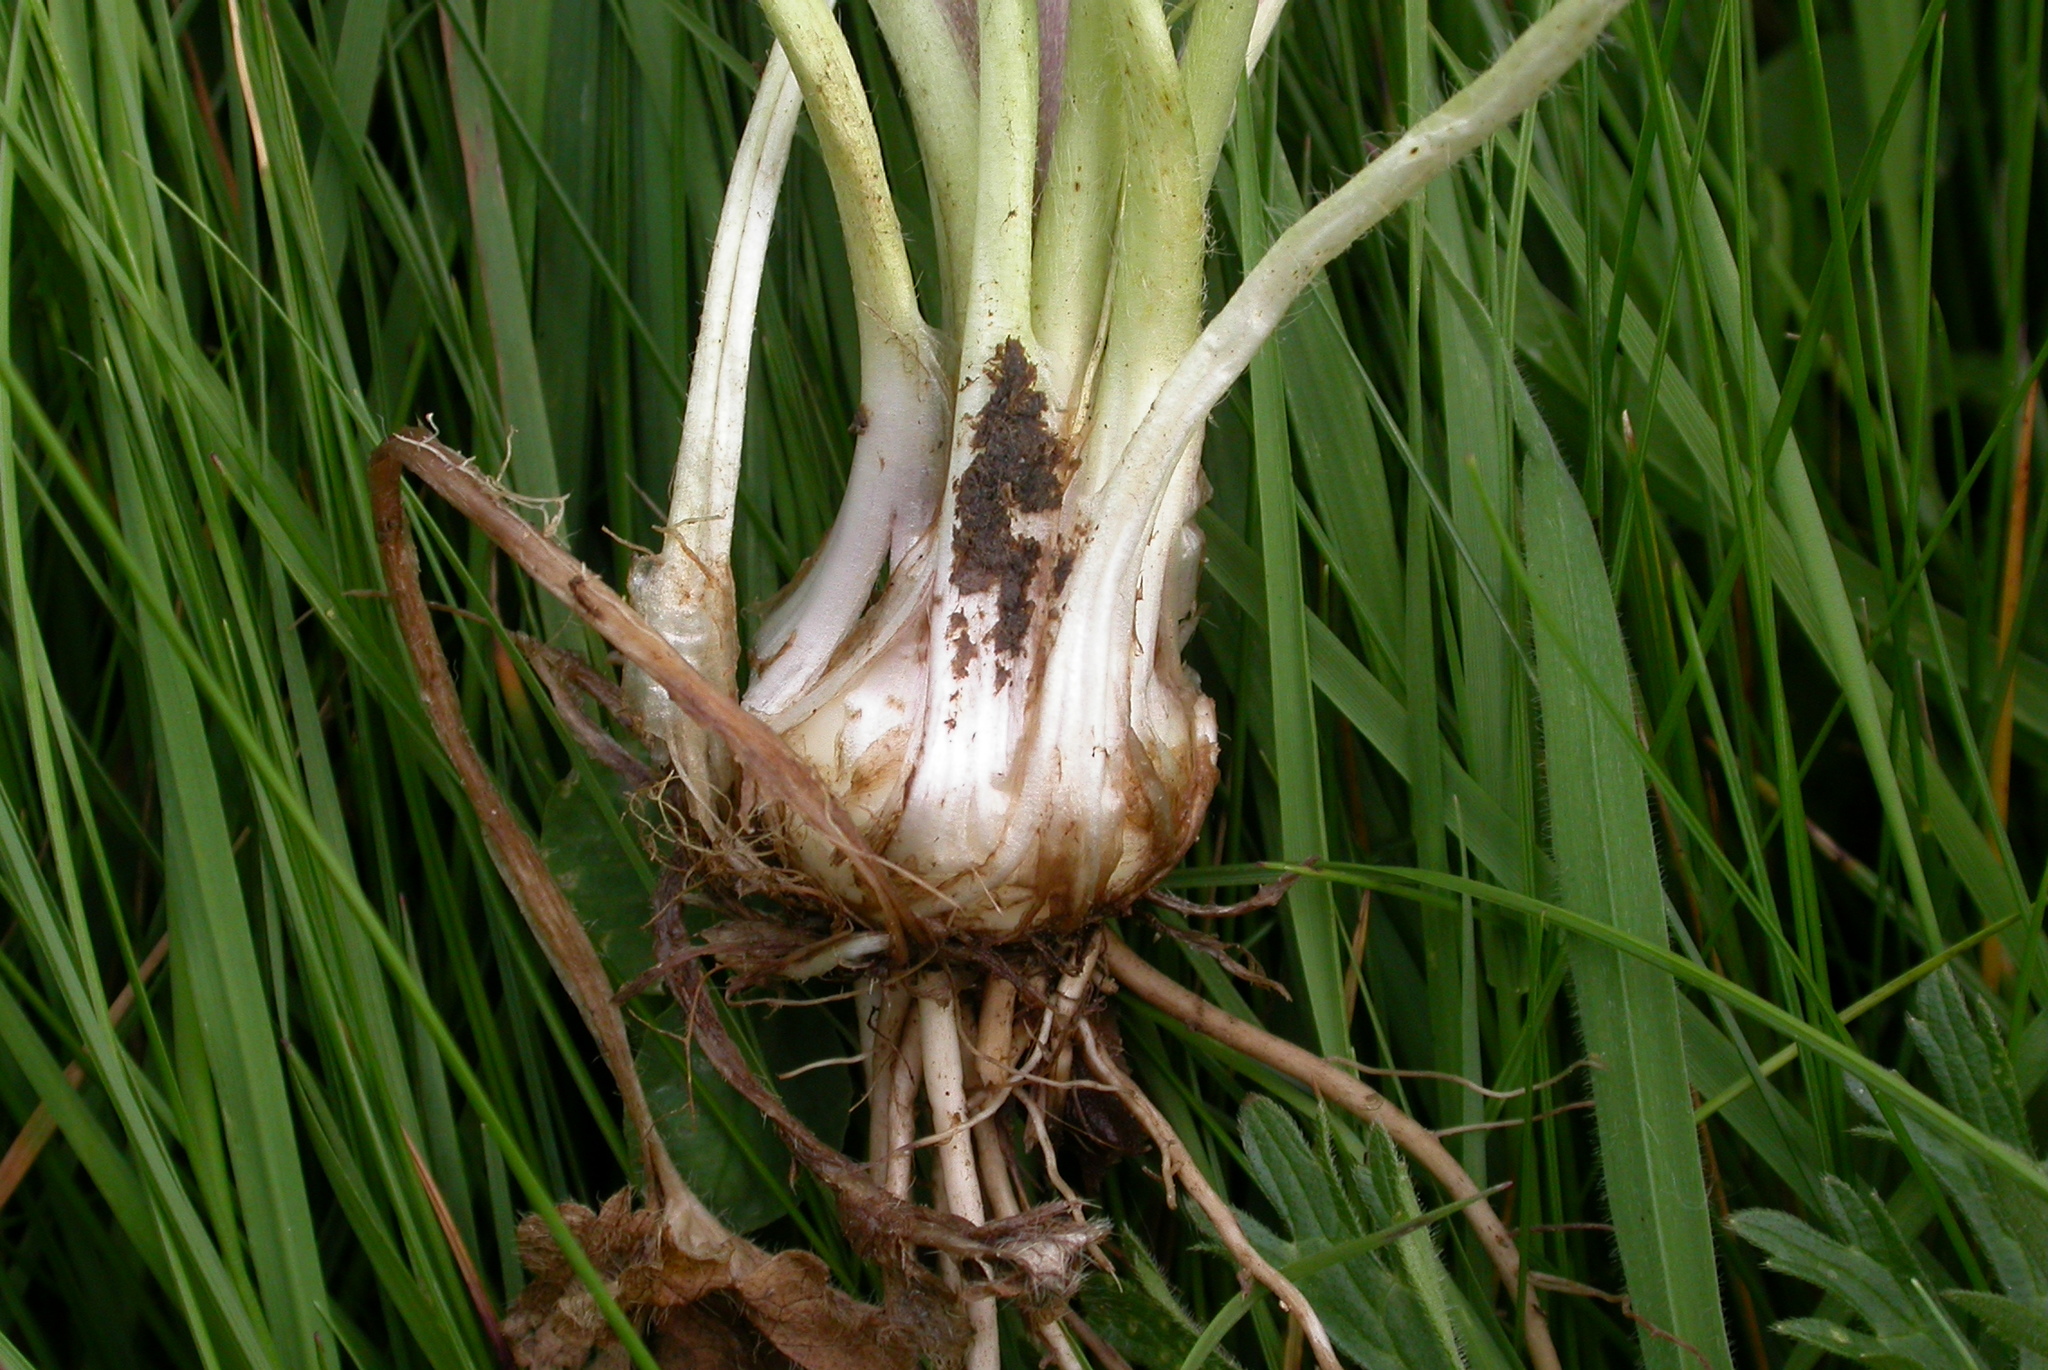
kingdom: Plantae
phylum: Tracheophyta
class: Magnoliopsida
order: Ranunculales
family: Ranunculaceae
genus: Ranunculus
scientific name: Ranunculus bulbosus
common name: Bulbous buttercup
